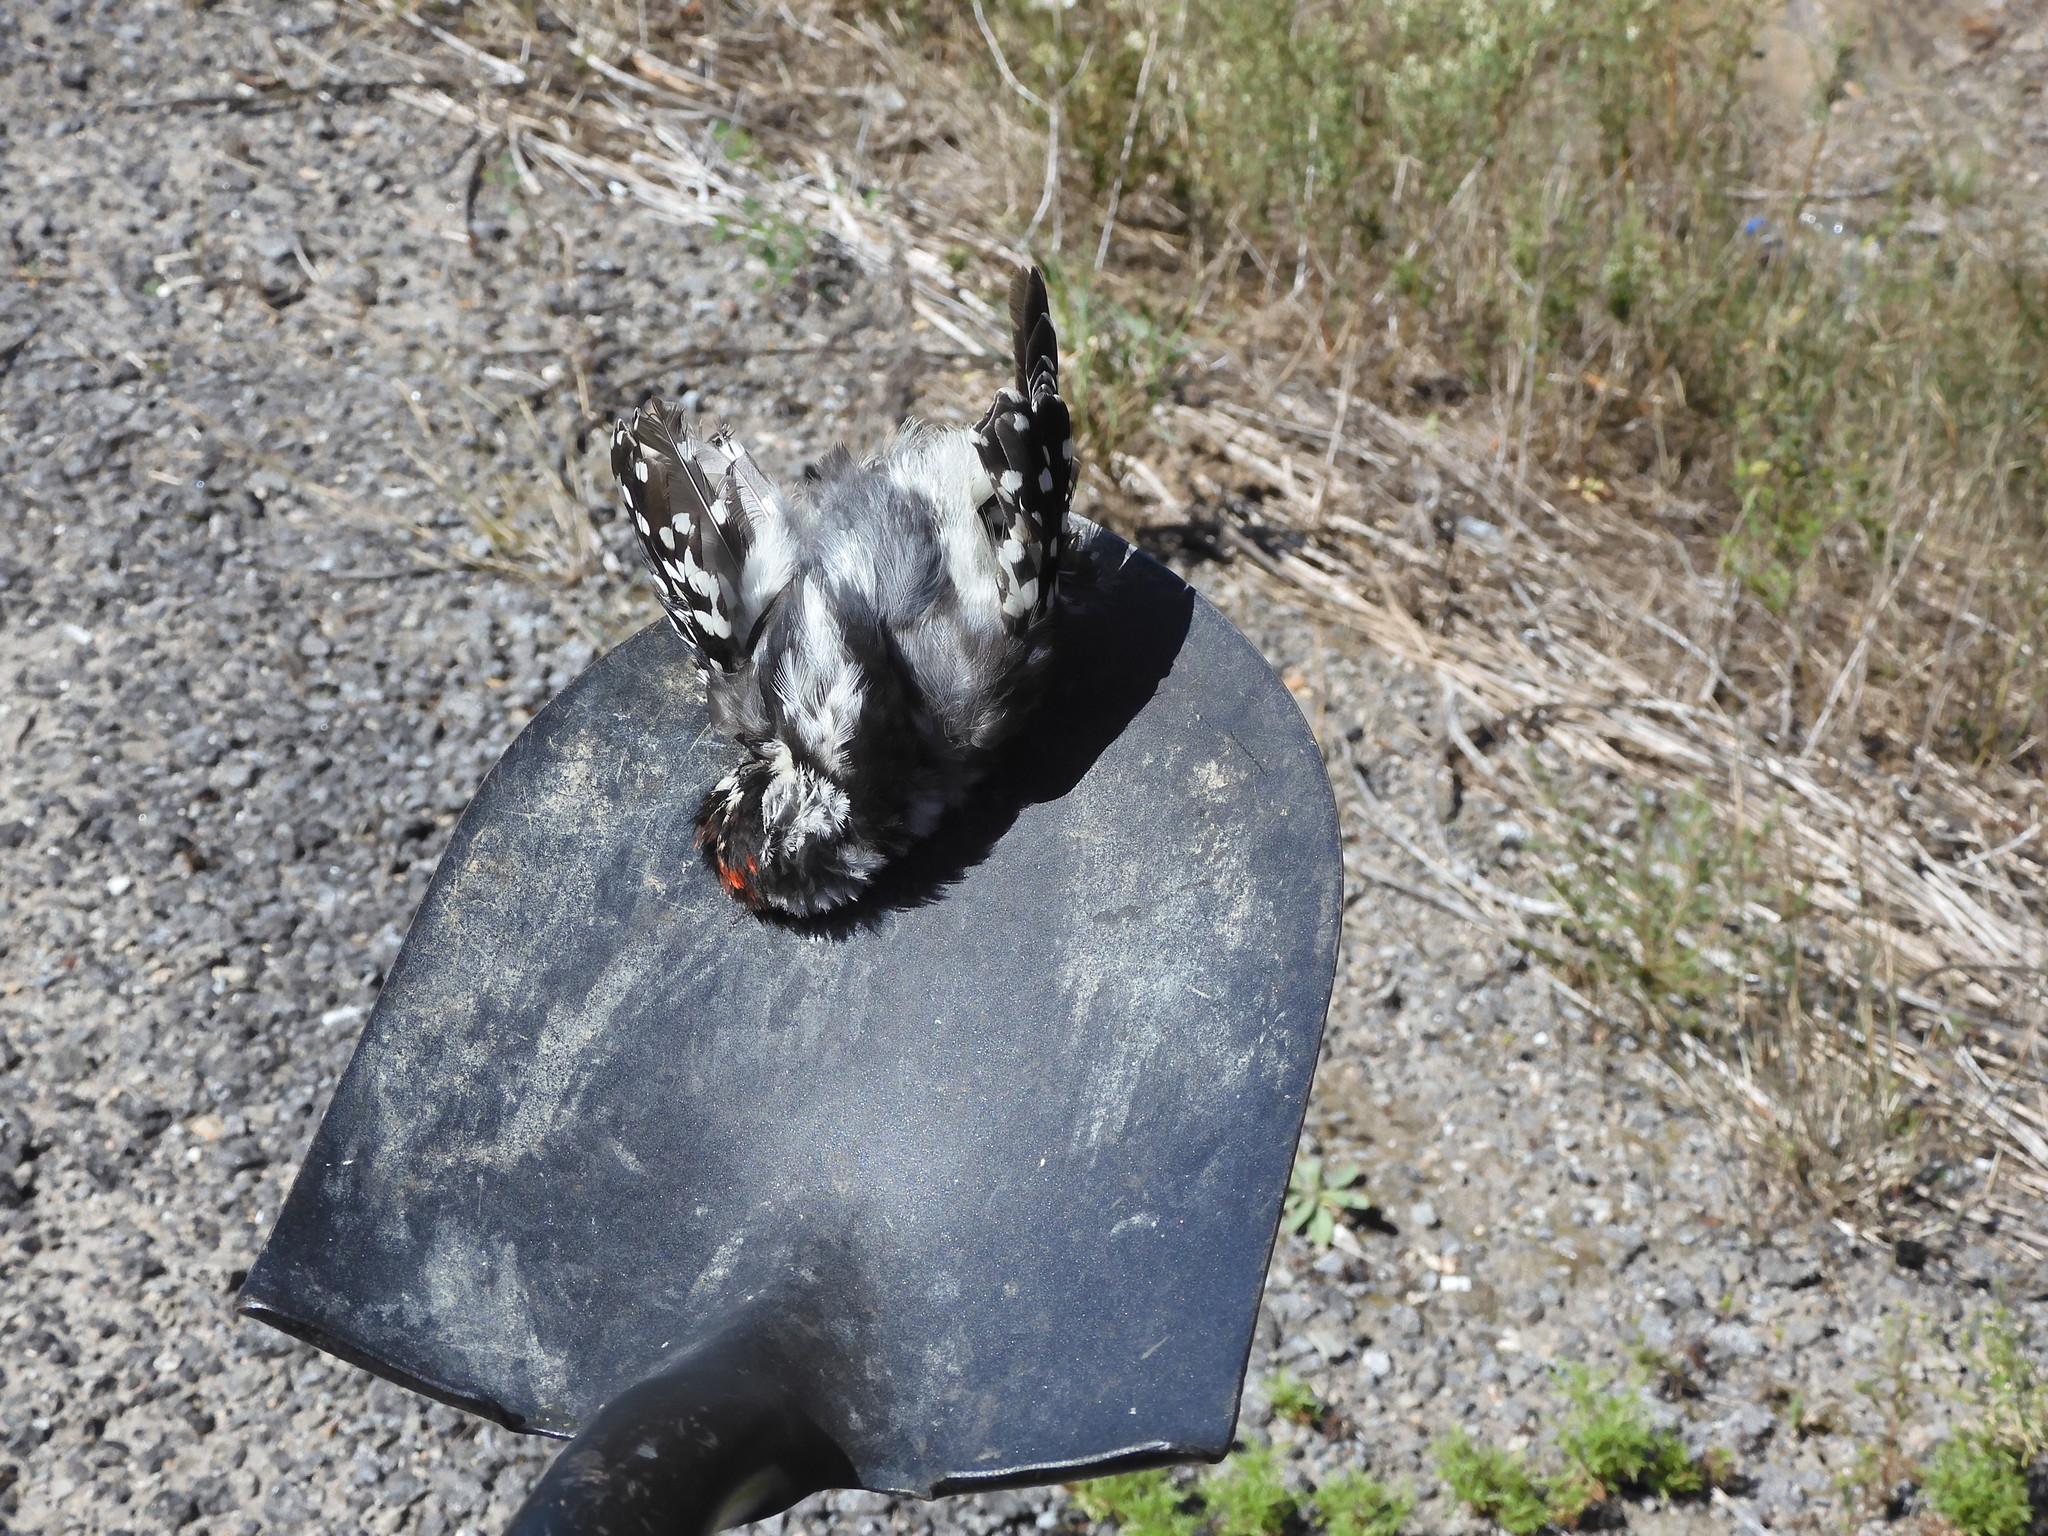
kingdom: Animalia
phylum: Chordata
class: Aves
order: Piciformes
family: Picidae
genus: Dryobates
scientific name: Dryobates pubescens
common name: Downy woodpecker
